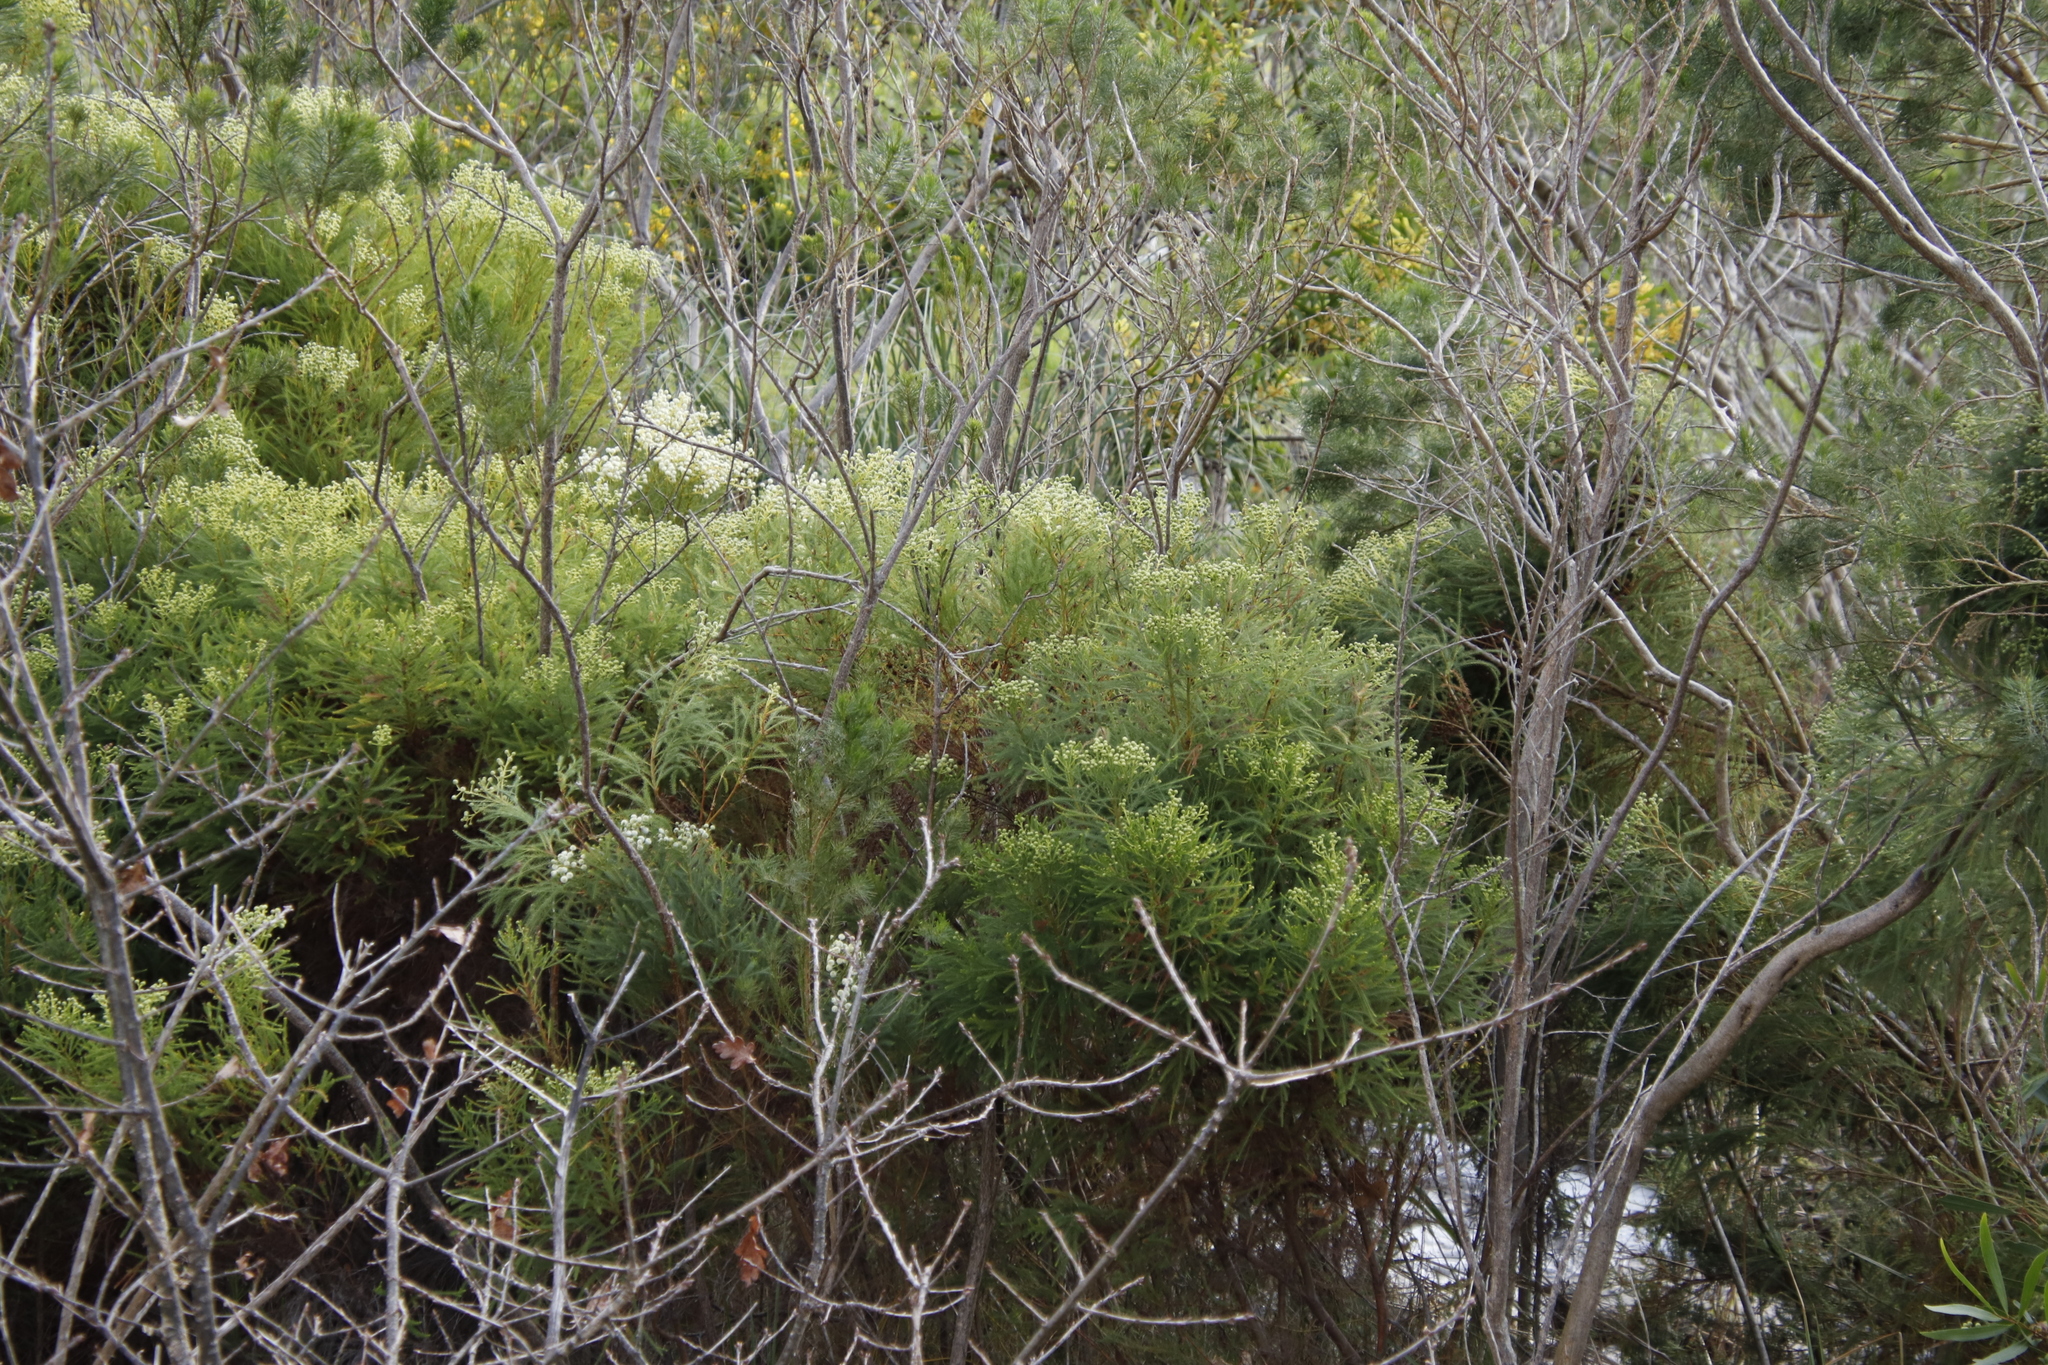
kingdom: Plantae
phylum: Tracheophyta
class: Magnoliopsida
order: Bruniales
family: Bruniaceae
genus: Berzelia
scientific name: Berzelia lanuginosa
